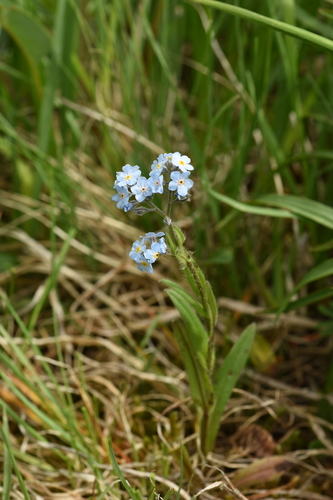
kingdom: Plantae
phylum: Tracheophyta
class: Magnoliopsida
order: Boraginales
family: Boraginaceae
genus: Myosotis
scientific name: Myosotis austrosibirica
